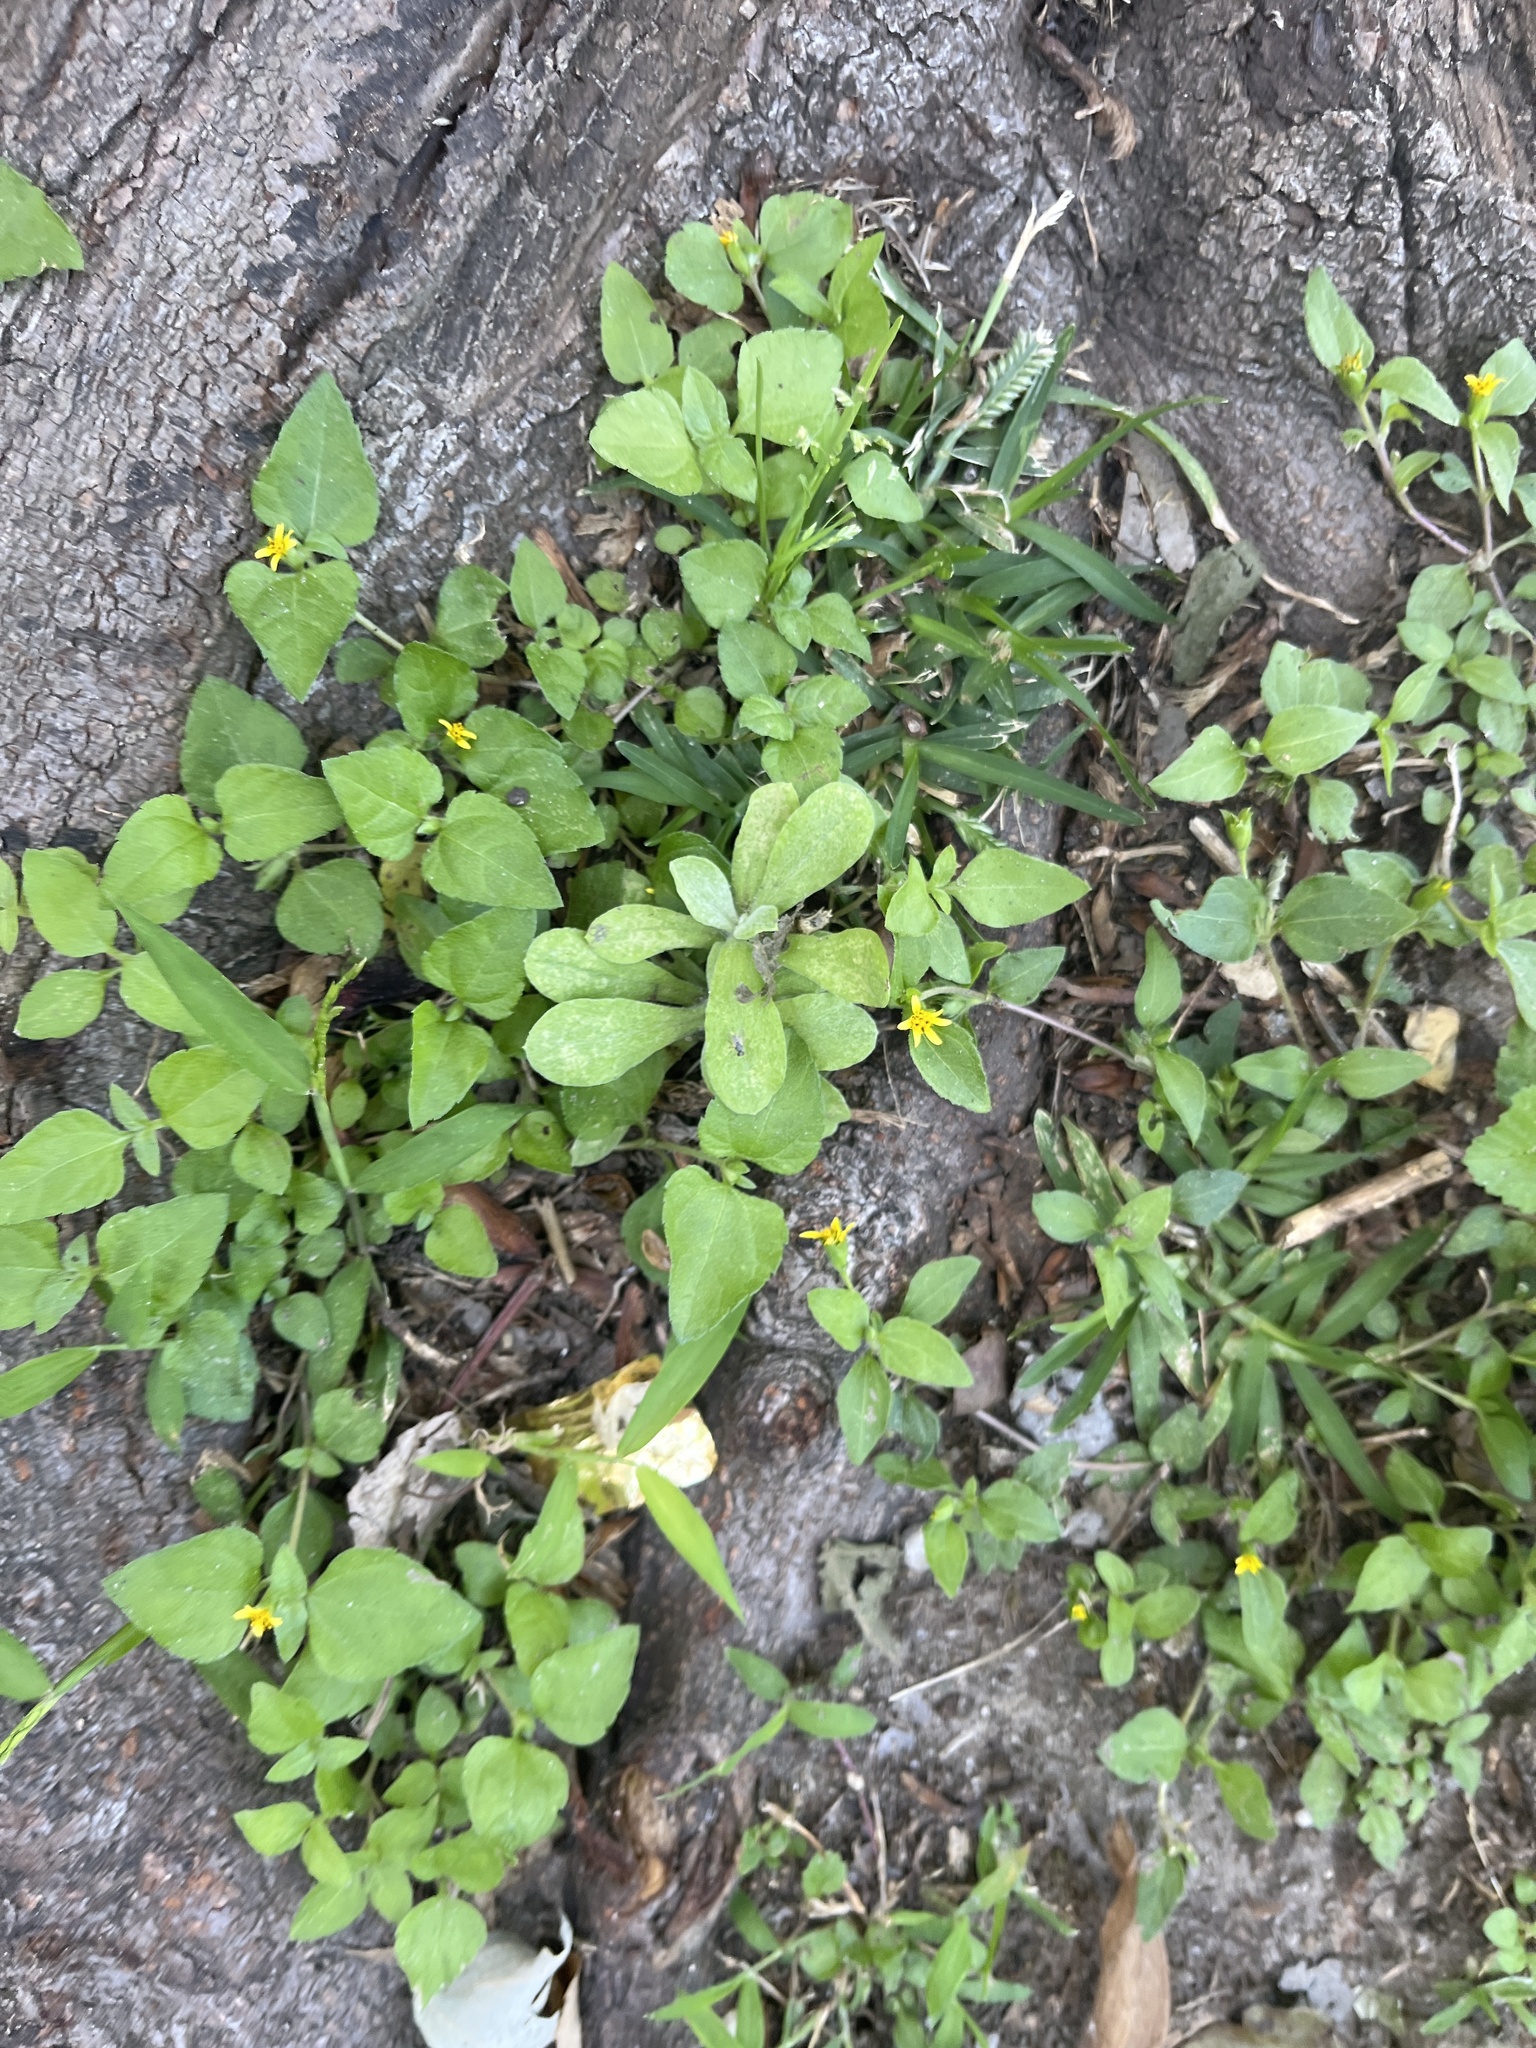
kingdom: Plantae
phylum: Tracheophyta
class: Magnoliopsida
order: Asterales
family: Asteraceae
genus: Calyptocarpus
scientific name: Calyptocarpus vialis
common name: Straggler daisy
